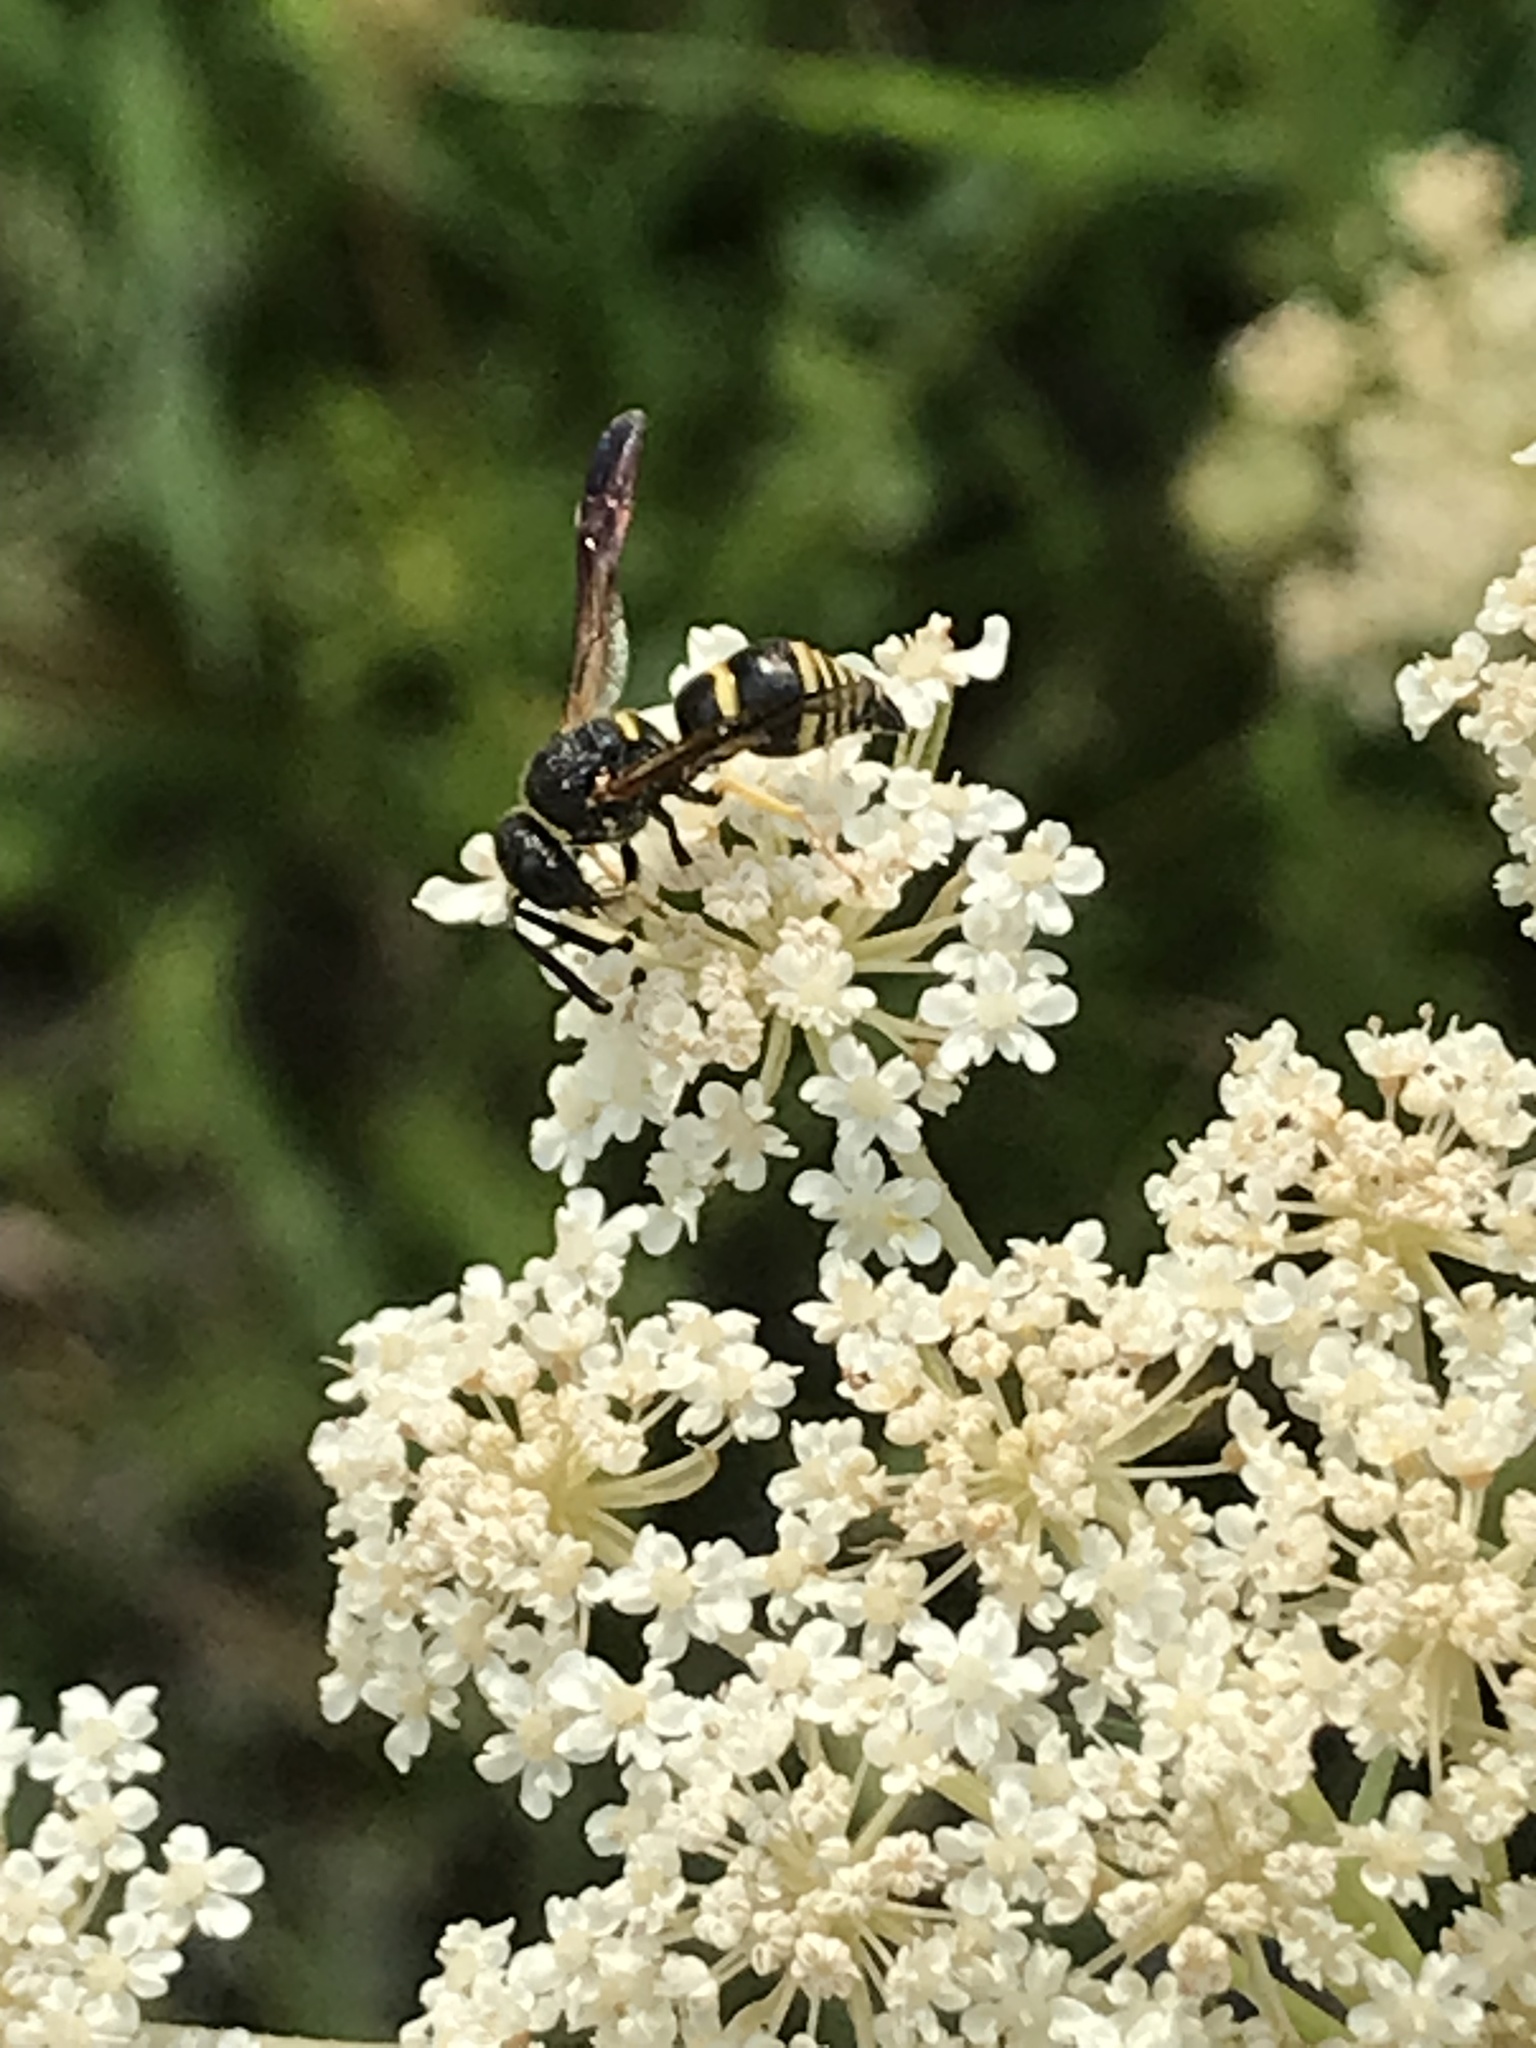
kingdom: Animalia
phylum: Arthropoda
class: Insecta
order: Hymenoptera
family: Eumenidae
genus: Euodynerus
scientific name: Euodynerus foraminatus
